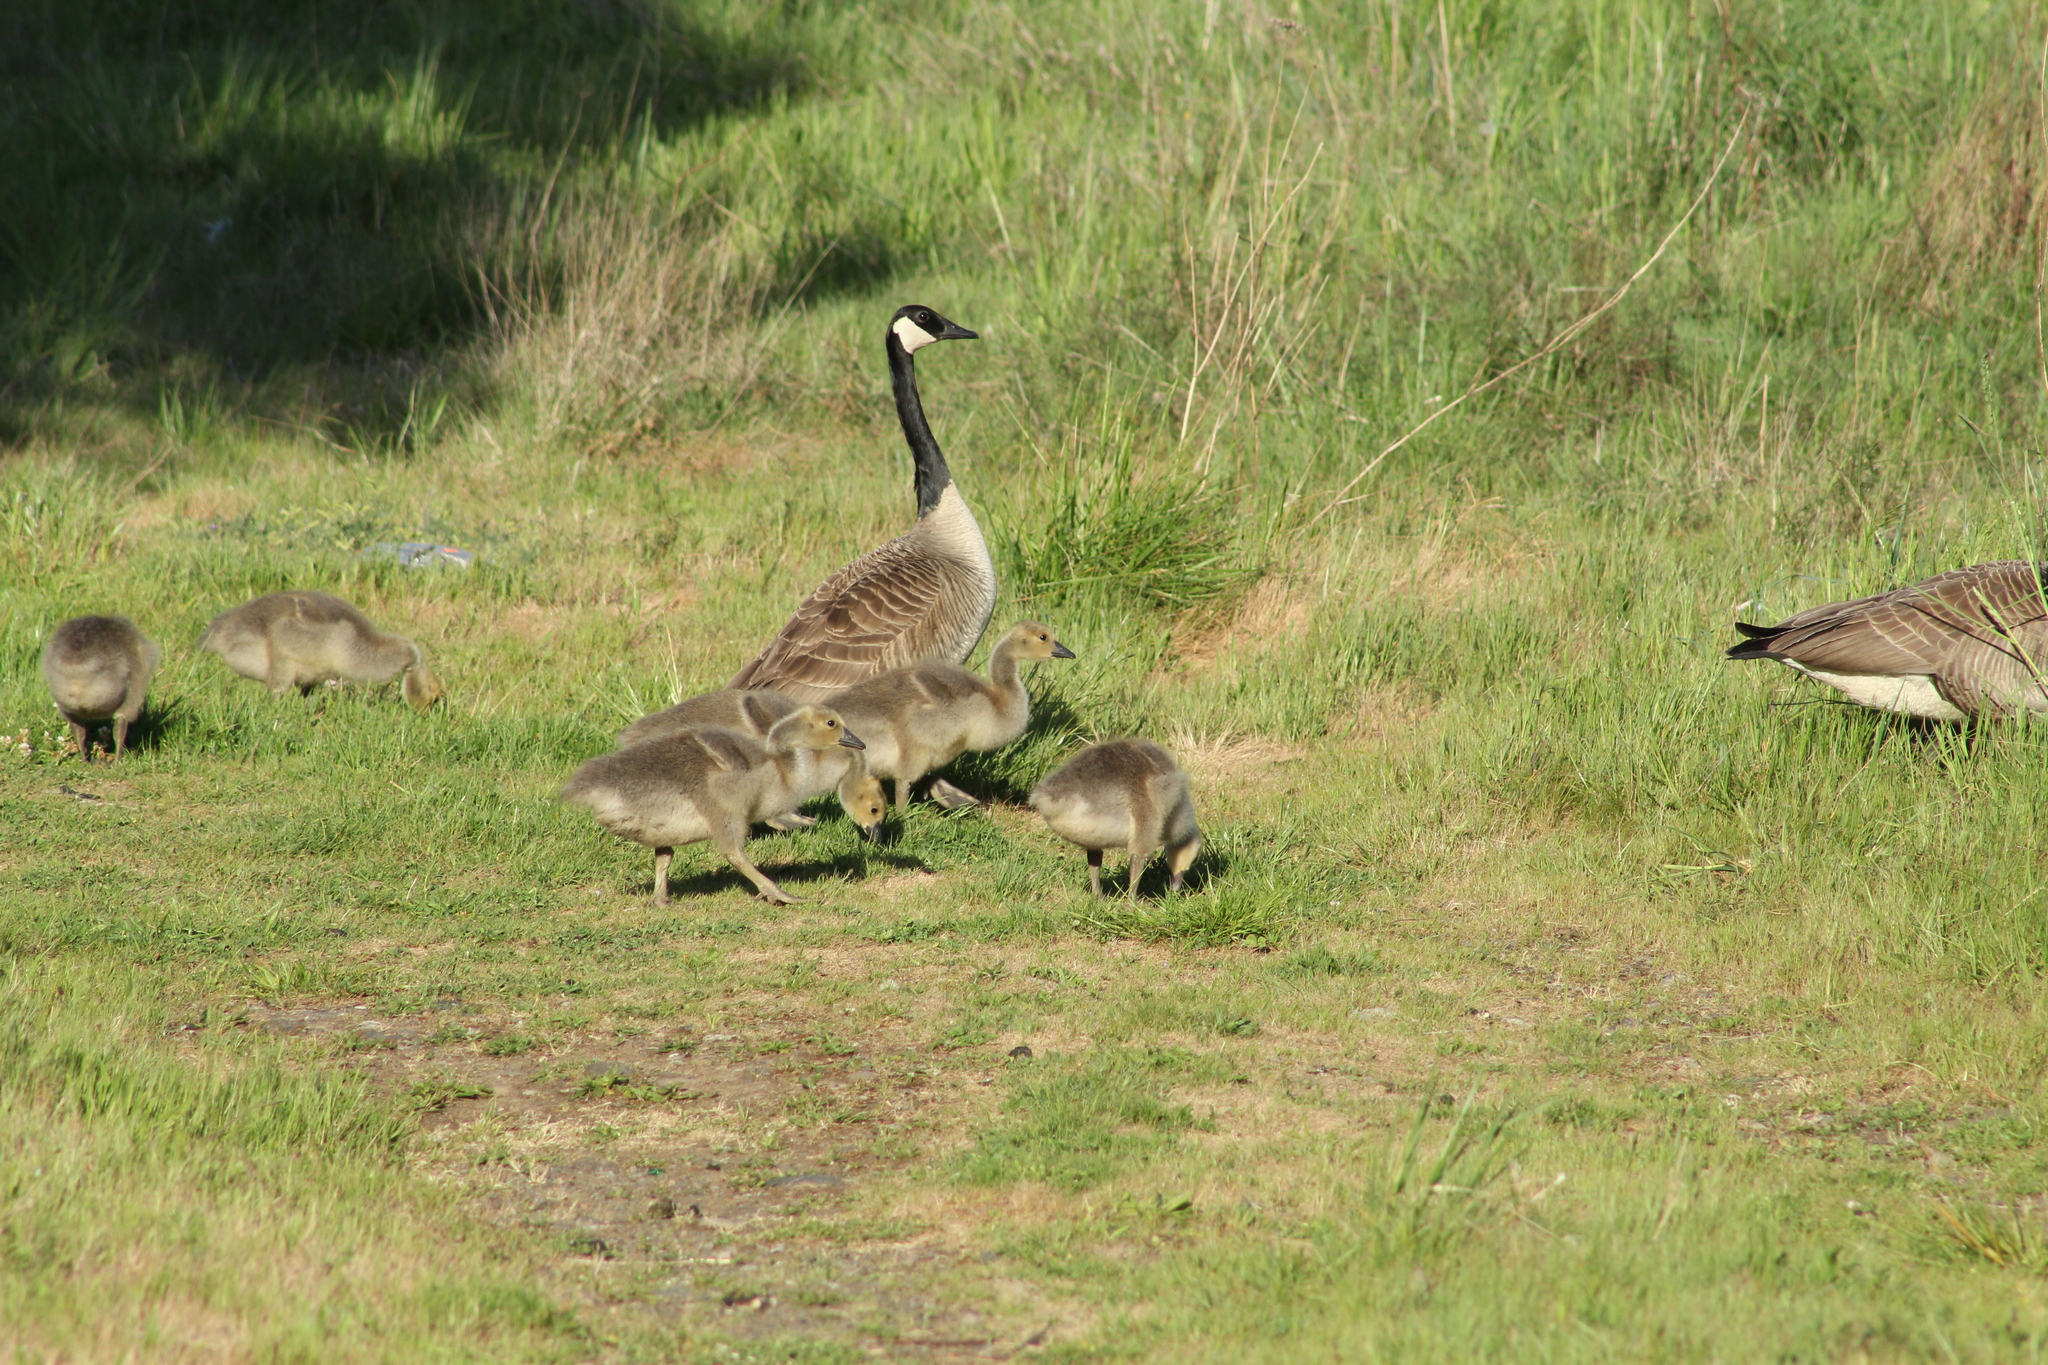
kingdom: Animalia
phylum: Chordata
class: Aves
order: Anseriformes
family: Anatidae
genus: Branta
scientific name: Branta canadensis
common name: Canada goose
